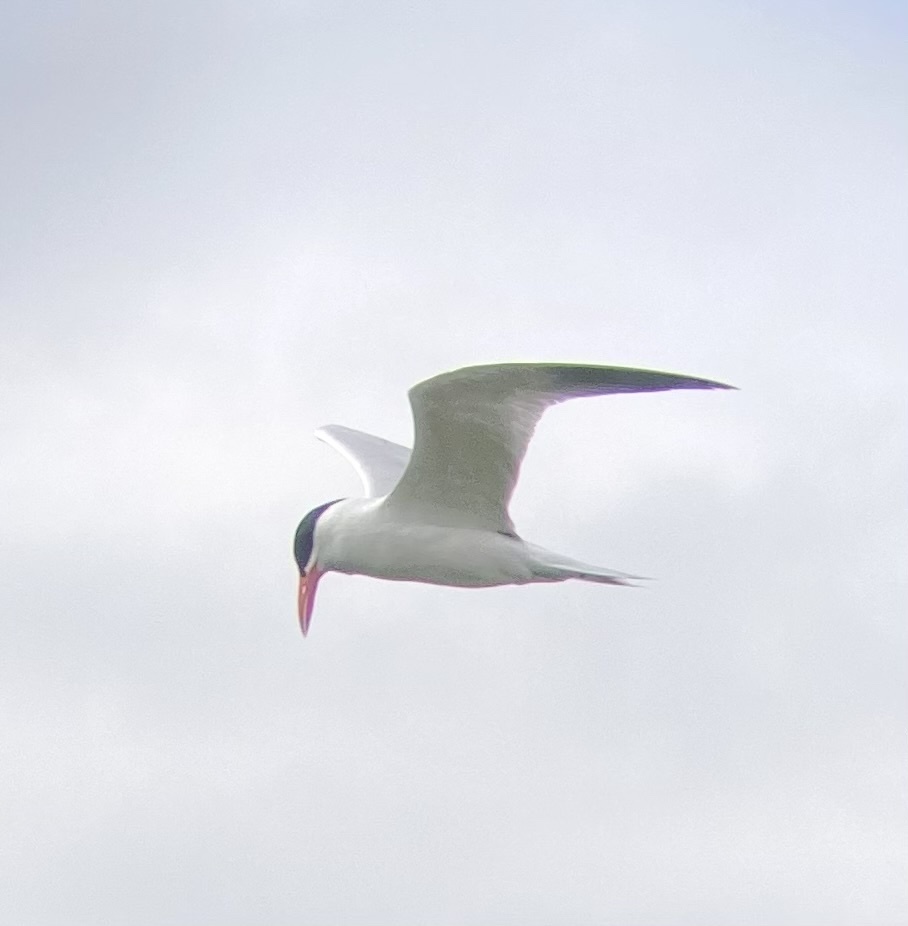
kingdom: Animalia
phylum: Chordata
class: Aves
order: Charadriiformes
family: Laridae
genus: Hydroprogne
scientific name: Hydroprogne caspia
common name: Caspian tern
